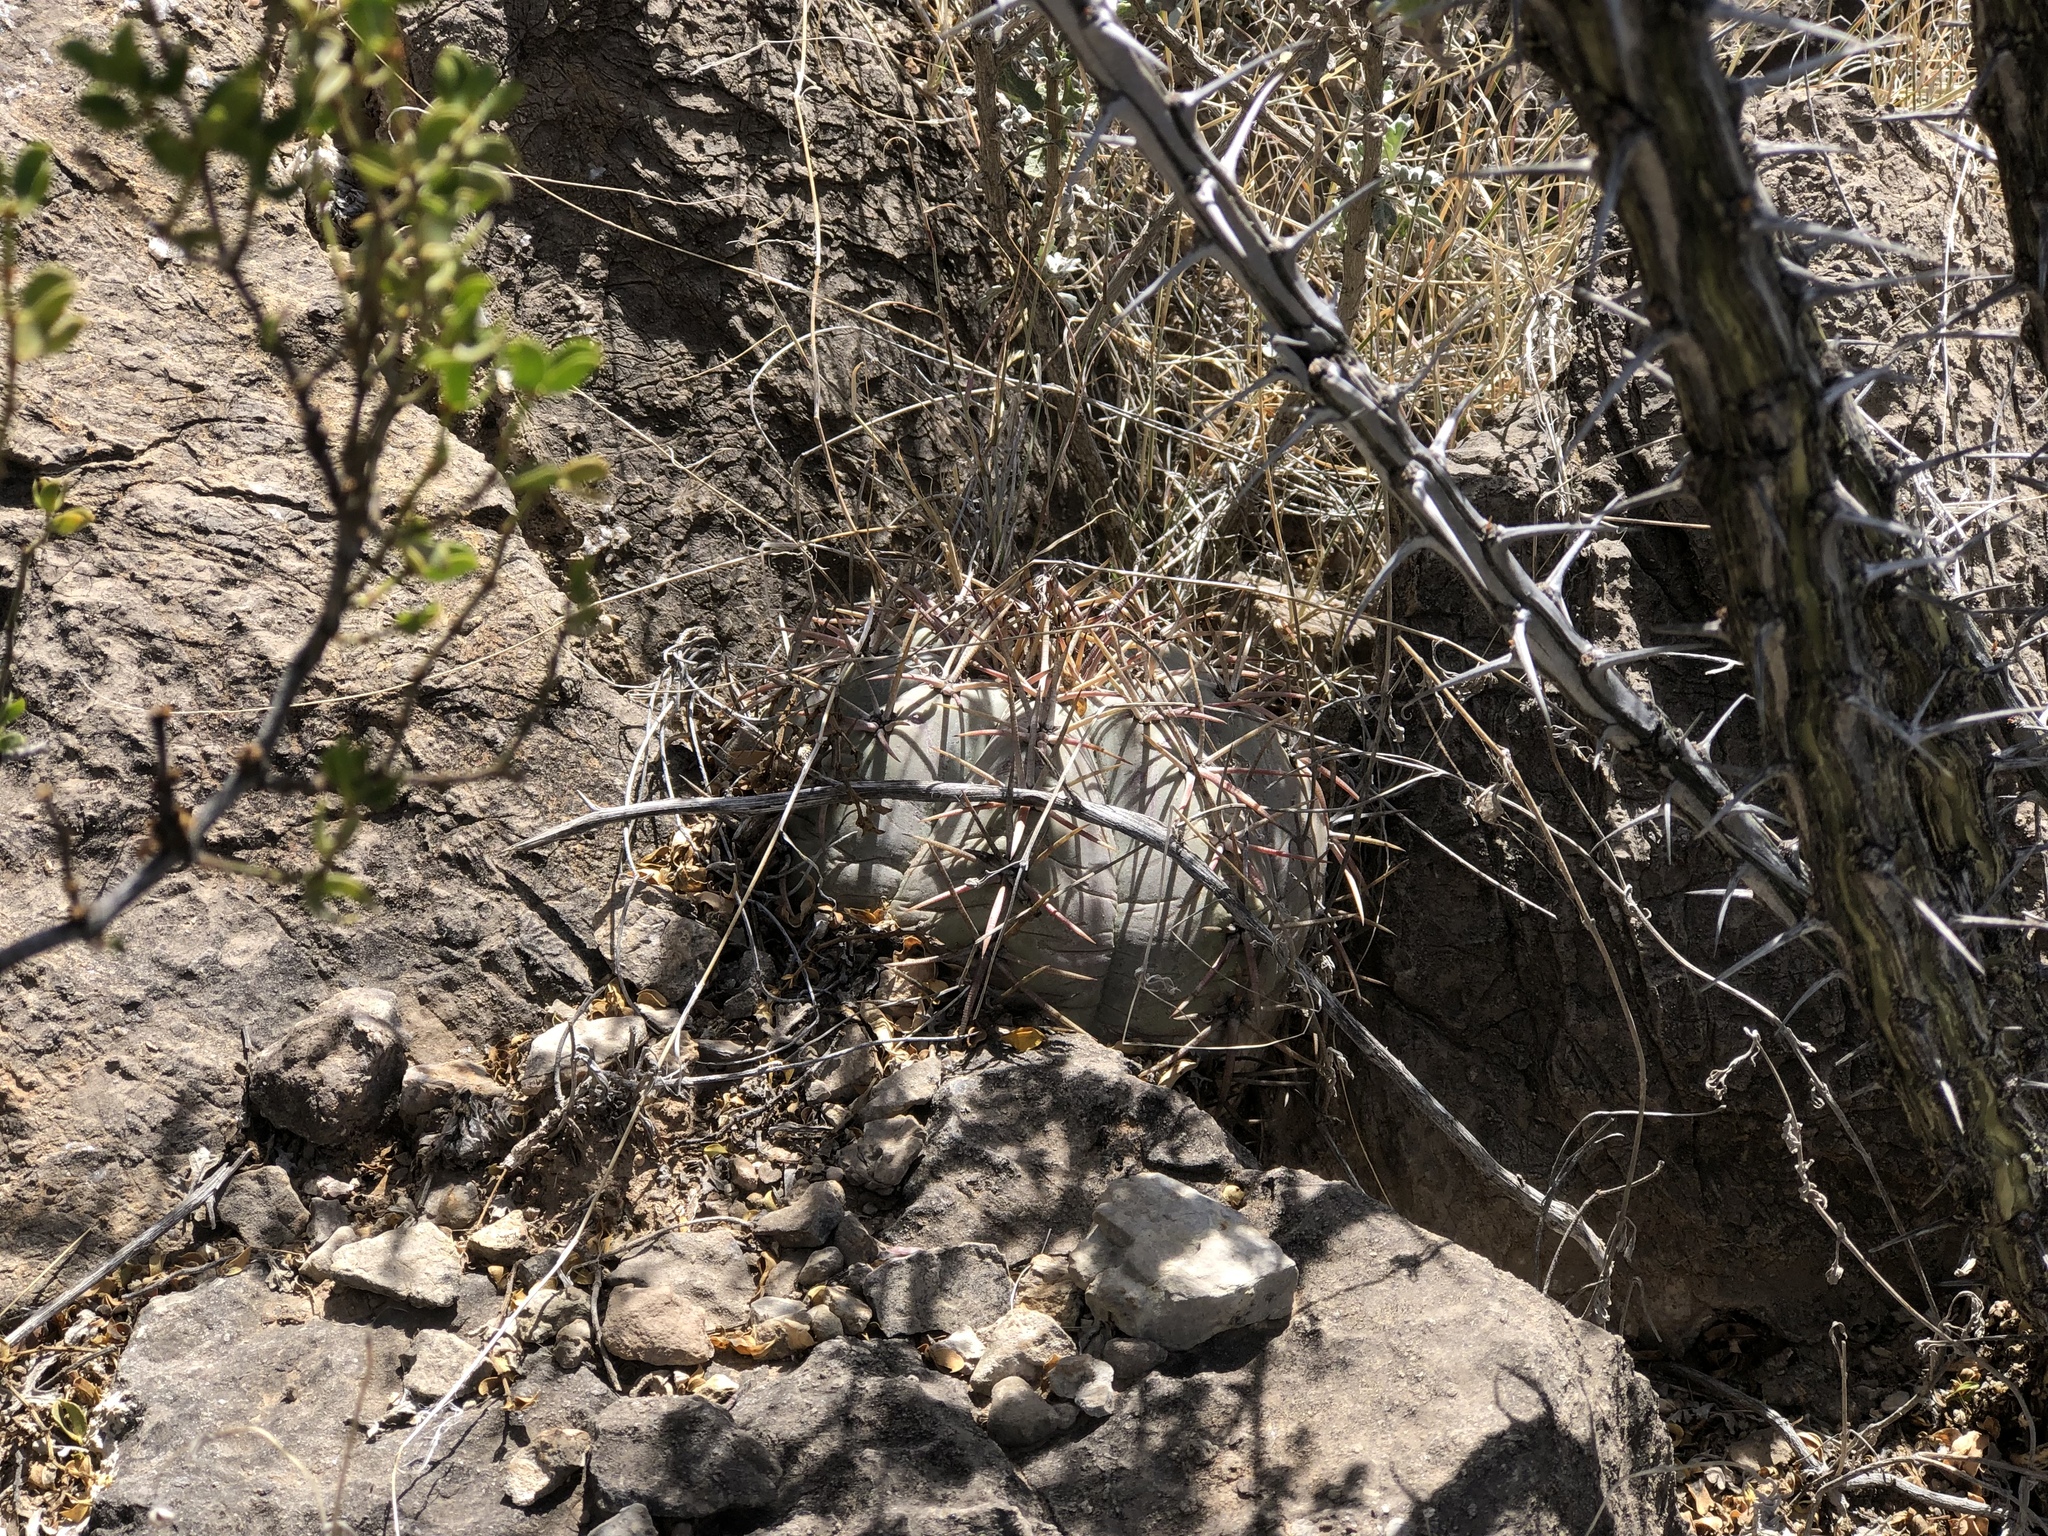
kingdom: Plantae
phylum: Tracheophyta
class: Magnoliopsida
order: Caryophyllales
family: Cactaceae
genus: Echinocactus
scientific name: Echinocactus horizonthalonius
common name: Devilshead
